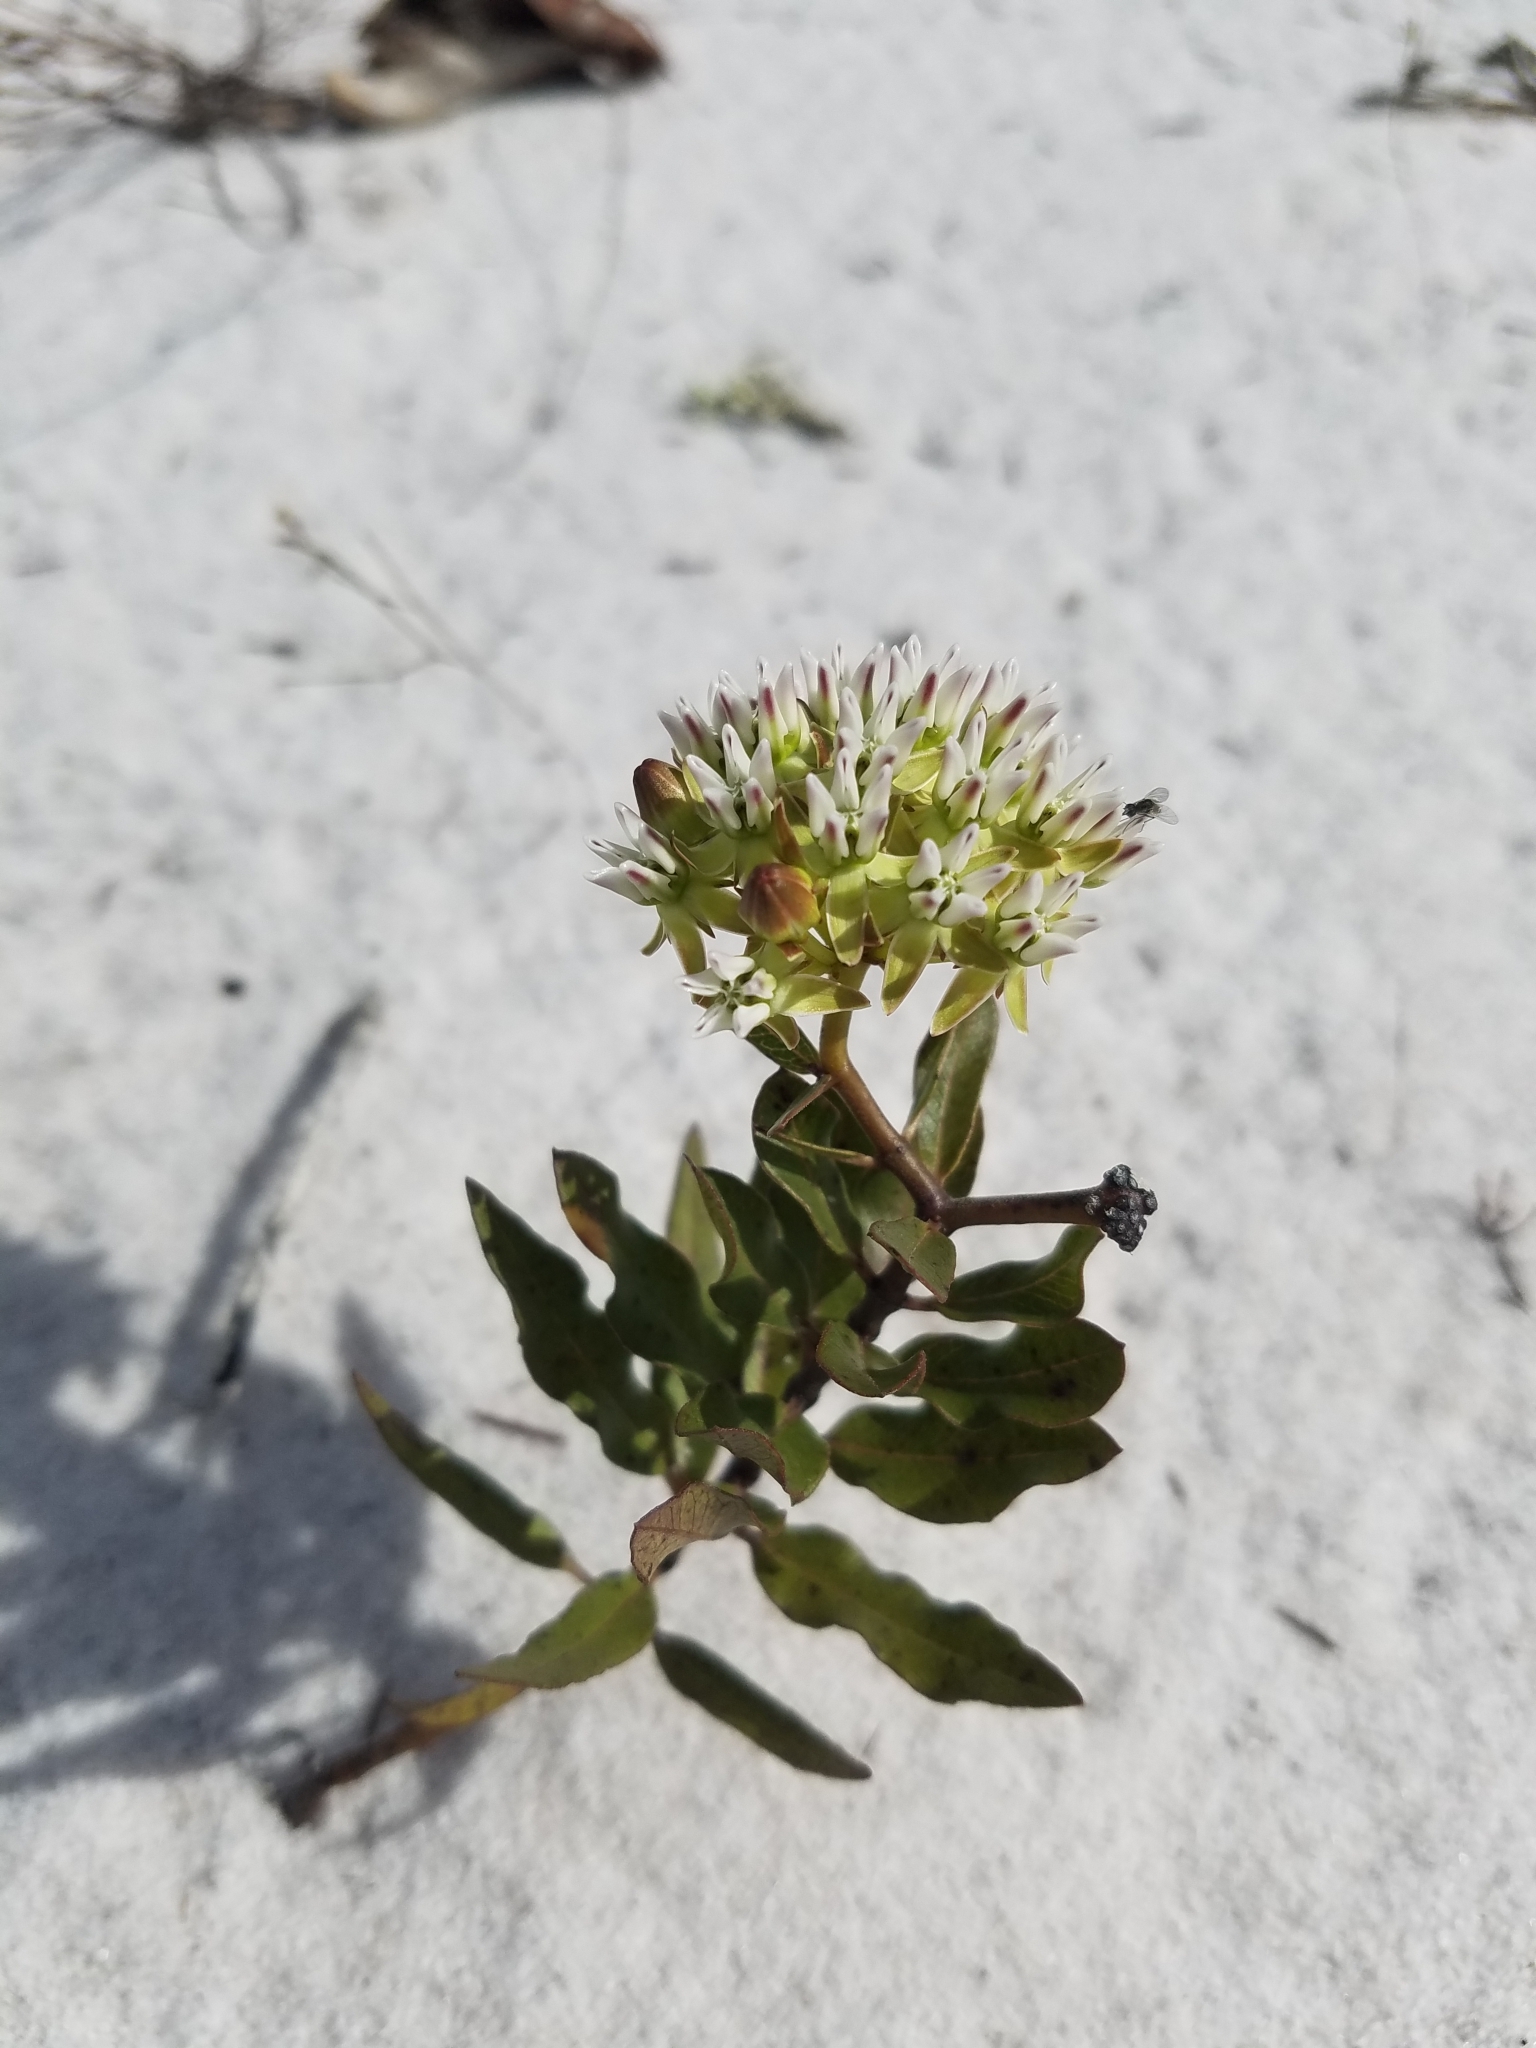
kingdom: Plantae
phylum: Tracheophyta
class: Magnoliopsida
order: Gentianales
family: Apocynaceae
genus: Asclepias
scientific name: Asclepias curtissii
